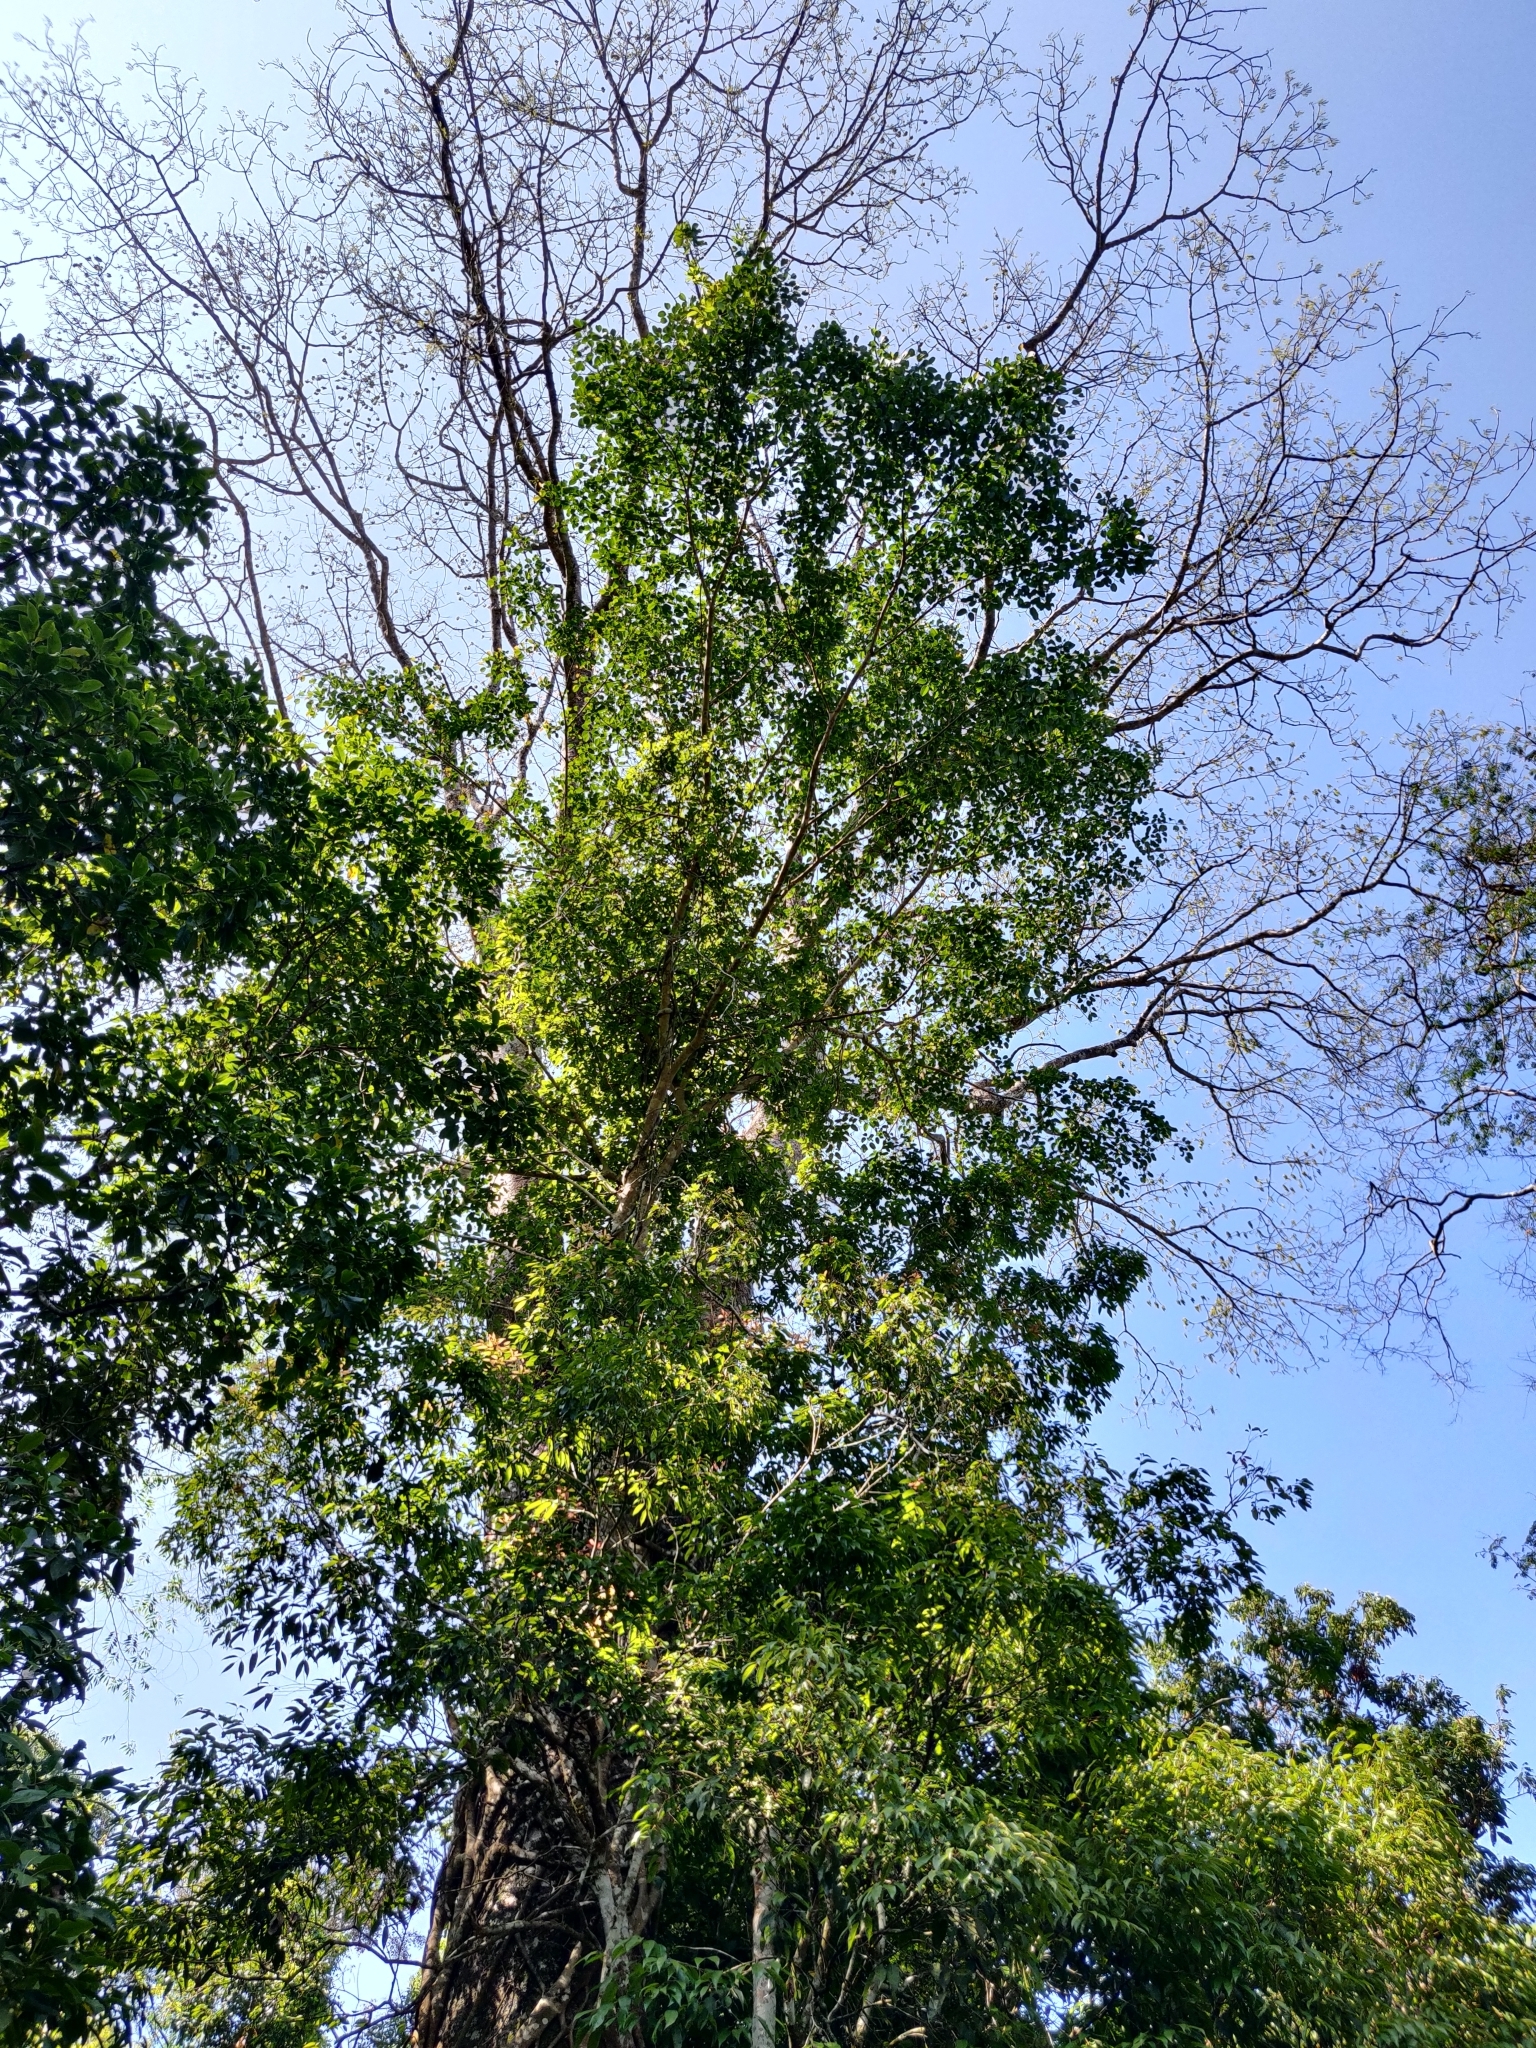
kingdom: Plantae
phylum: Tracheophyta
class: Magnoliopsida
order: Cucurbitales
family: Tetramelaceae
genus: Tetrameles
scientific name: Tetrameles nudiflora
